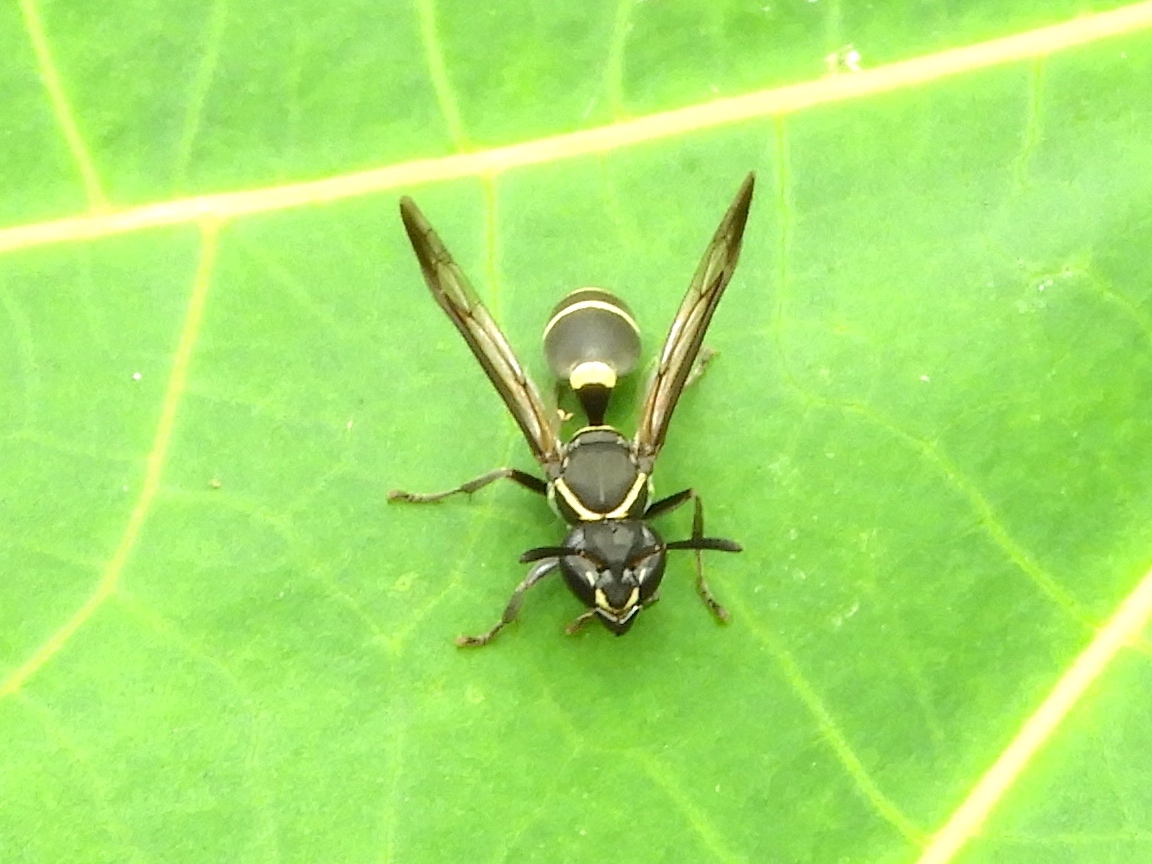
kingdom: Animalia
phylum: Arthropoda
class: Insecta
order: Hymenoptera
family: Vespidae
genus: Myrapetra
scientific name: Myrapetra
